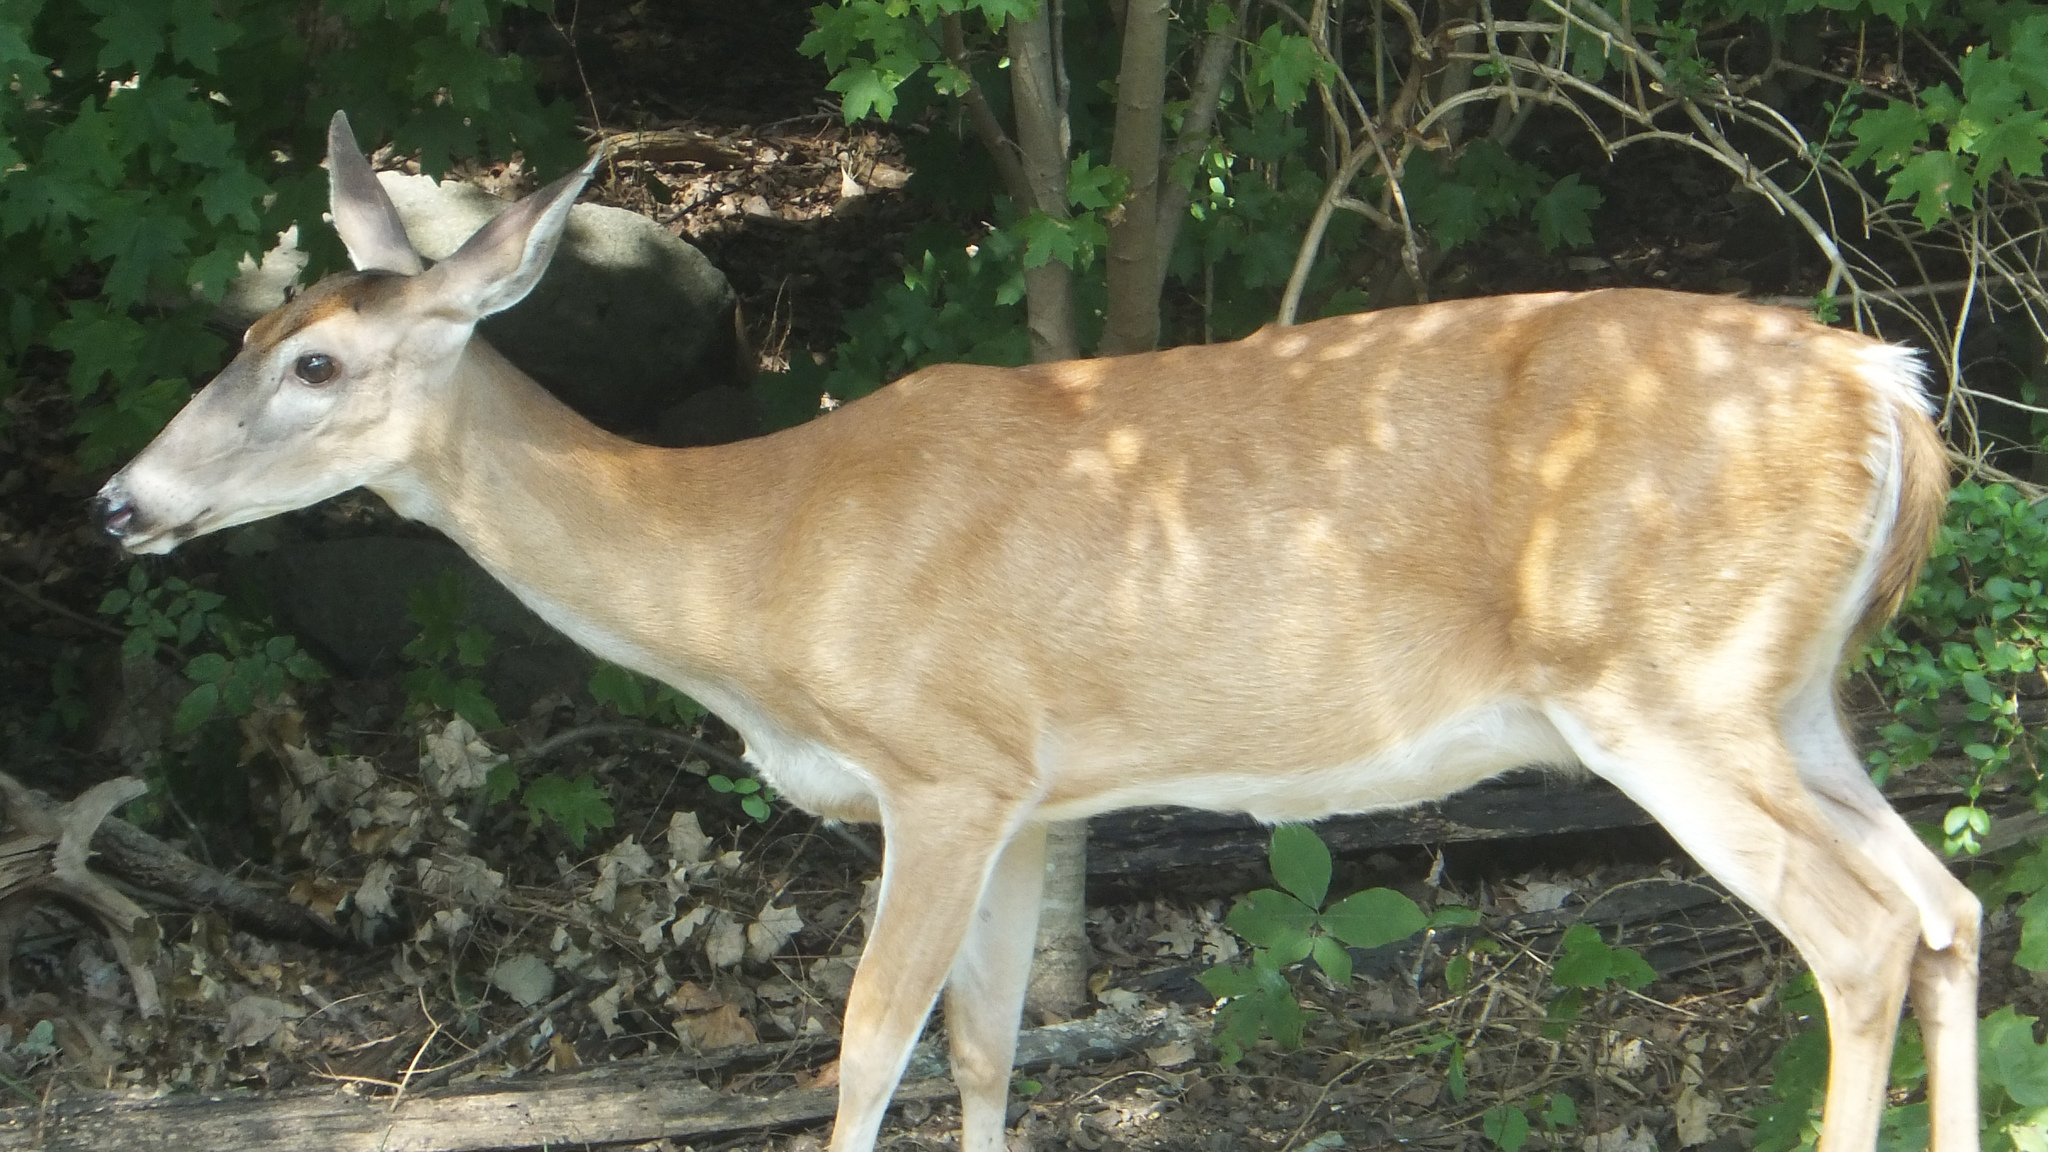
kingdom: Animalia
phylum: Chordata
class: Mammalia
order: Artiodactyla
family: Cervidae
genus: Odocoileus
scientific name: Odocoileus virginianus
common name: White-tailed deer
